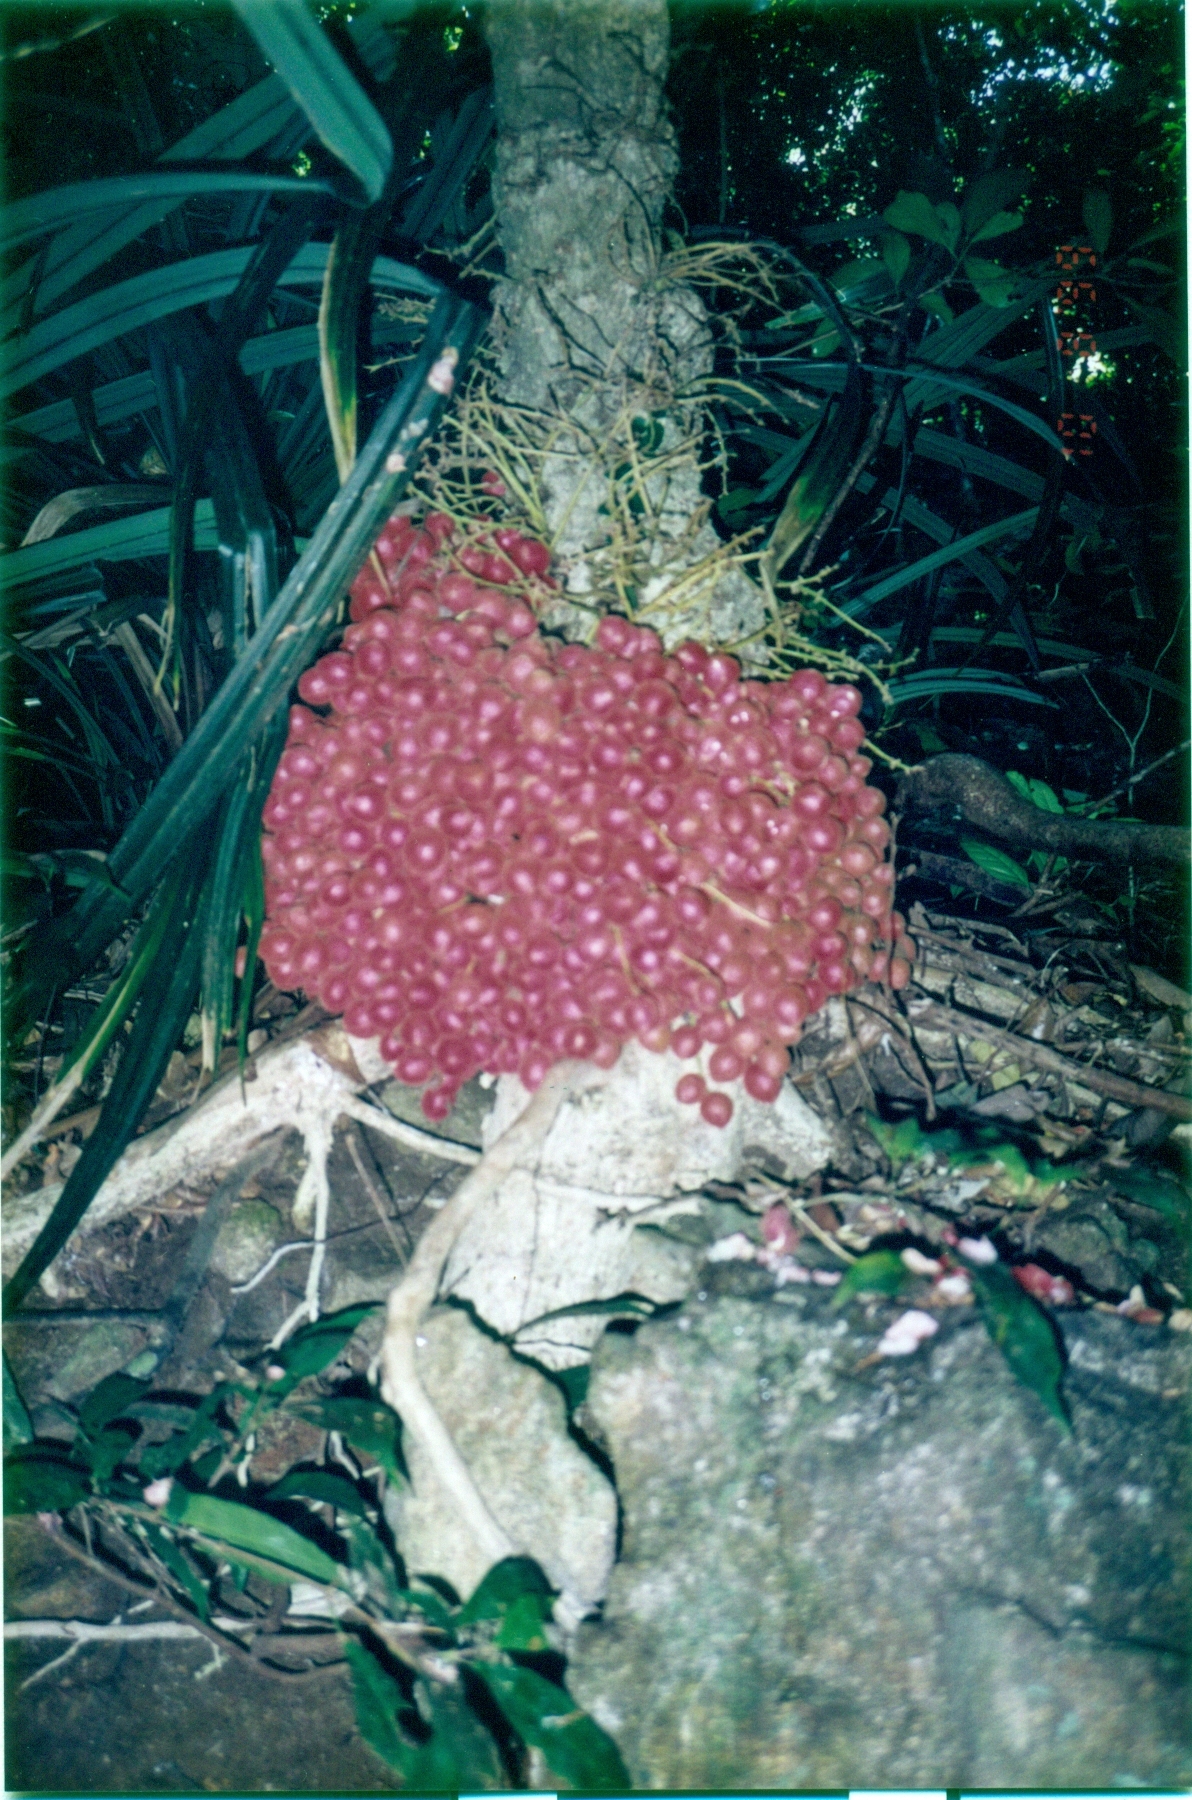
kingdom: Plantae
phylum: Tracheophyta
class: Magnoliopsida
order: Malpighiales
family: Phyllanthaceae
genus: Baccaurea
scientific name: Baccaurea courtallensis
